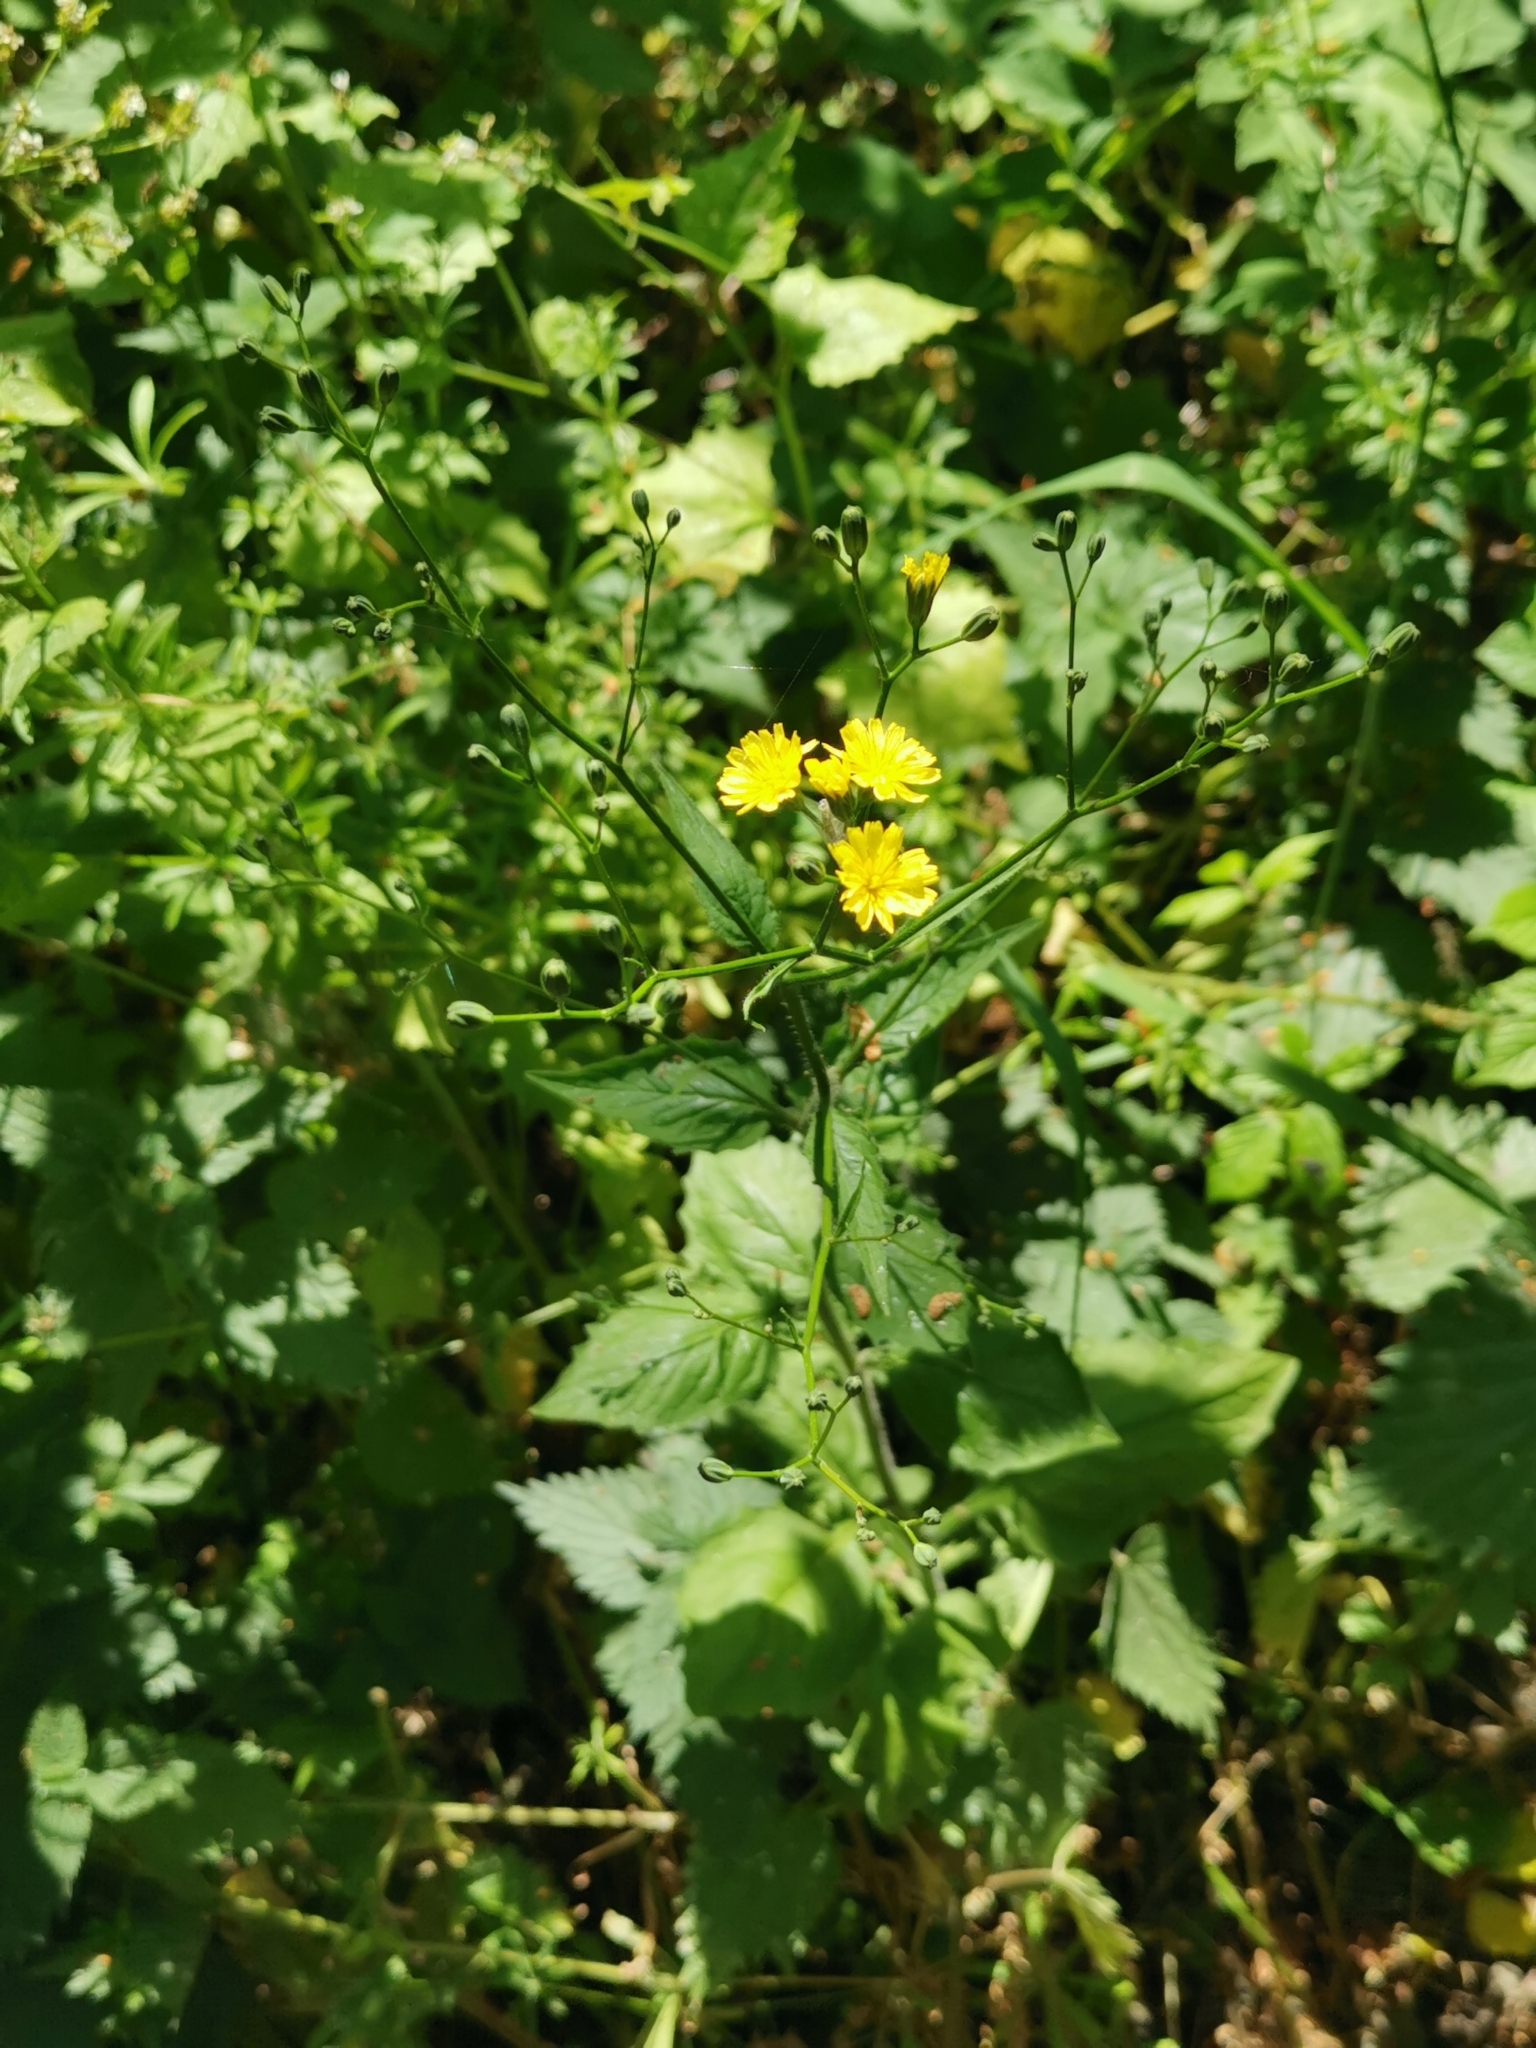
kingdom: Plantae
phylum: Tracheophyta
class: Magnoliopsida
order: Asterales
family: Asteraceae
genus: Lapsana
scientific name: Lapsana communis
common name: Nipplewort
